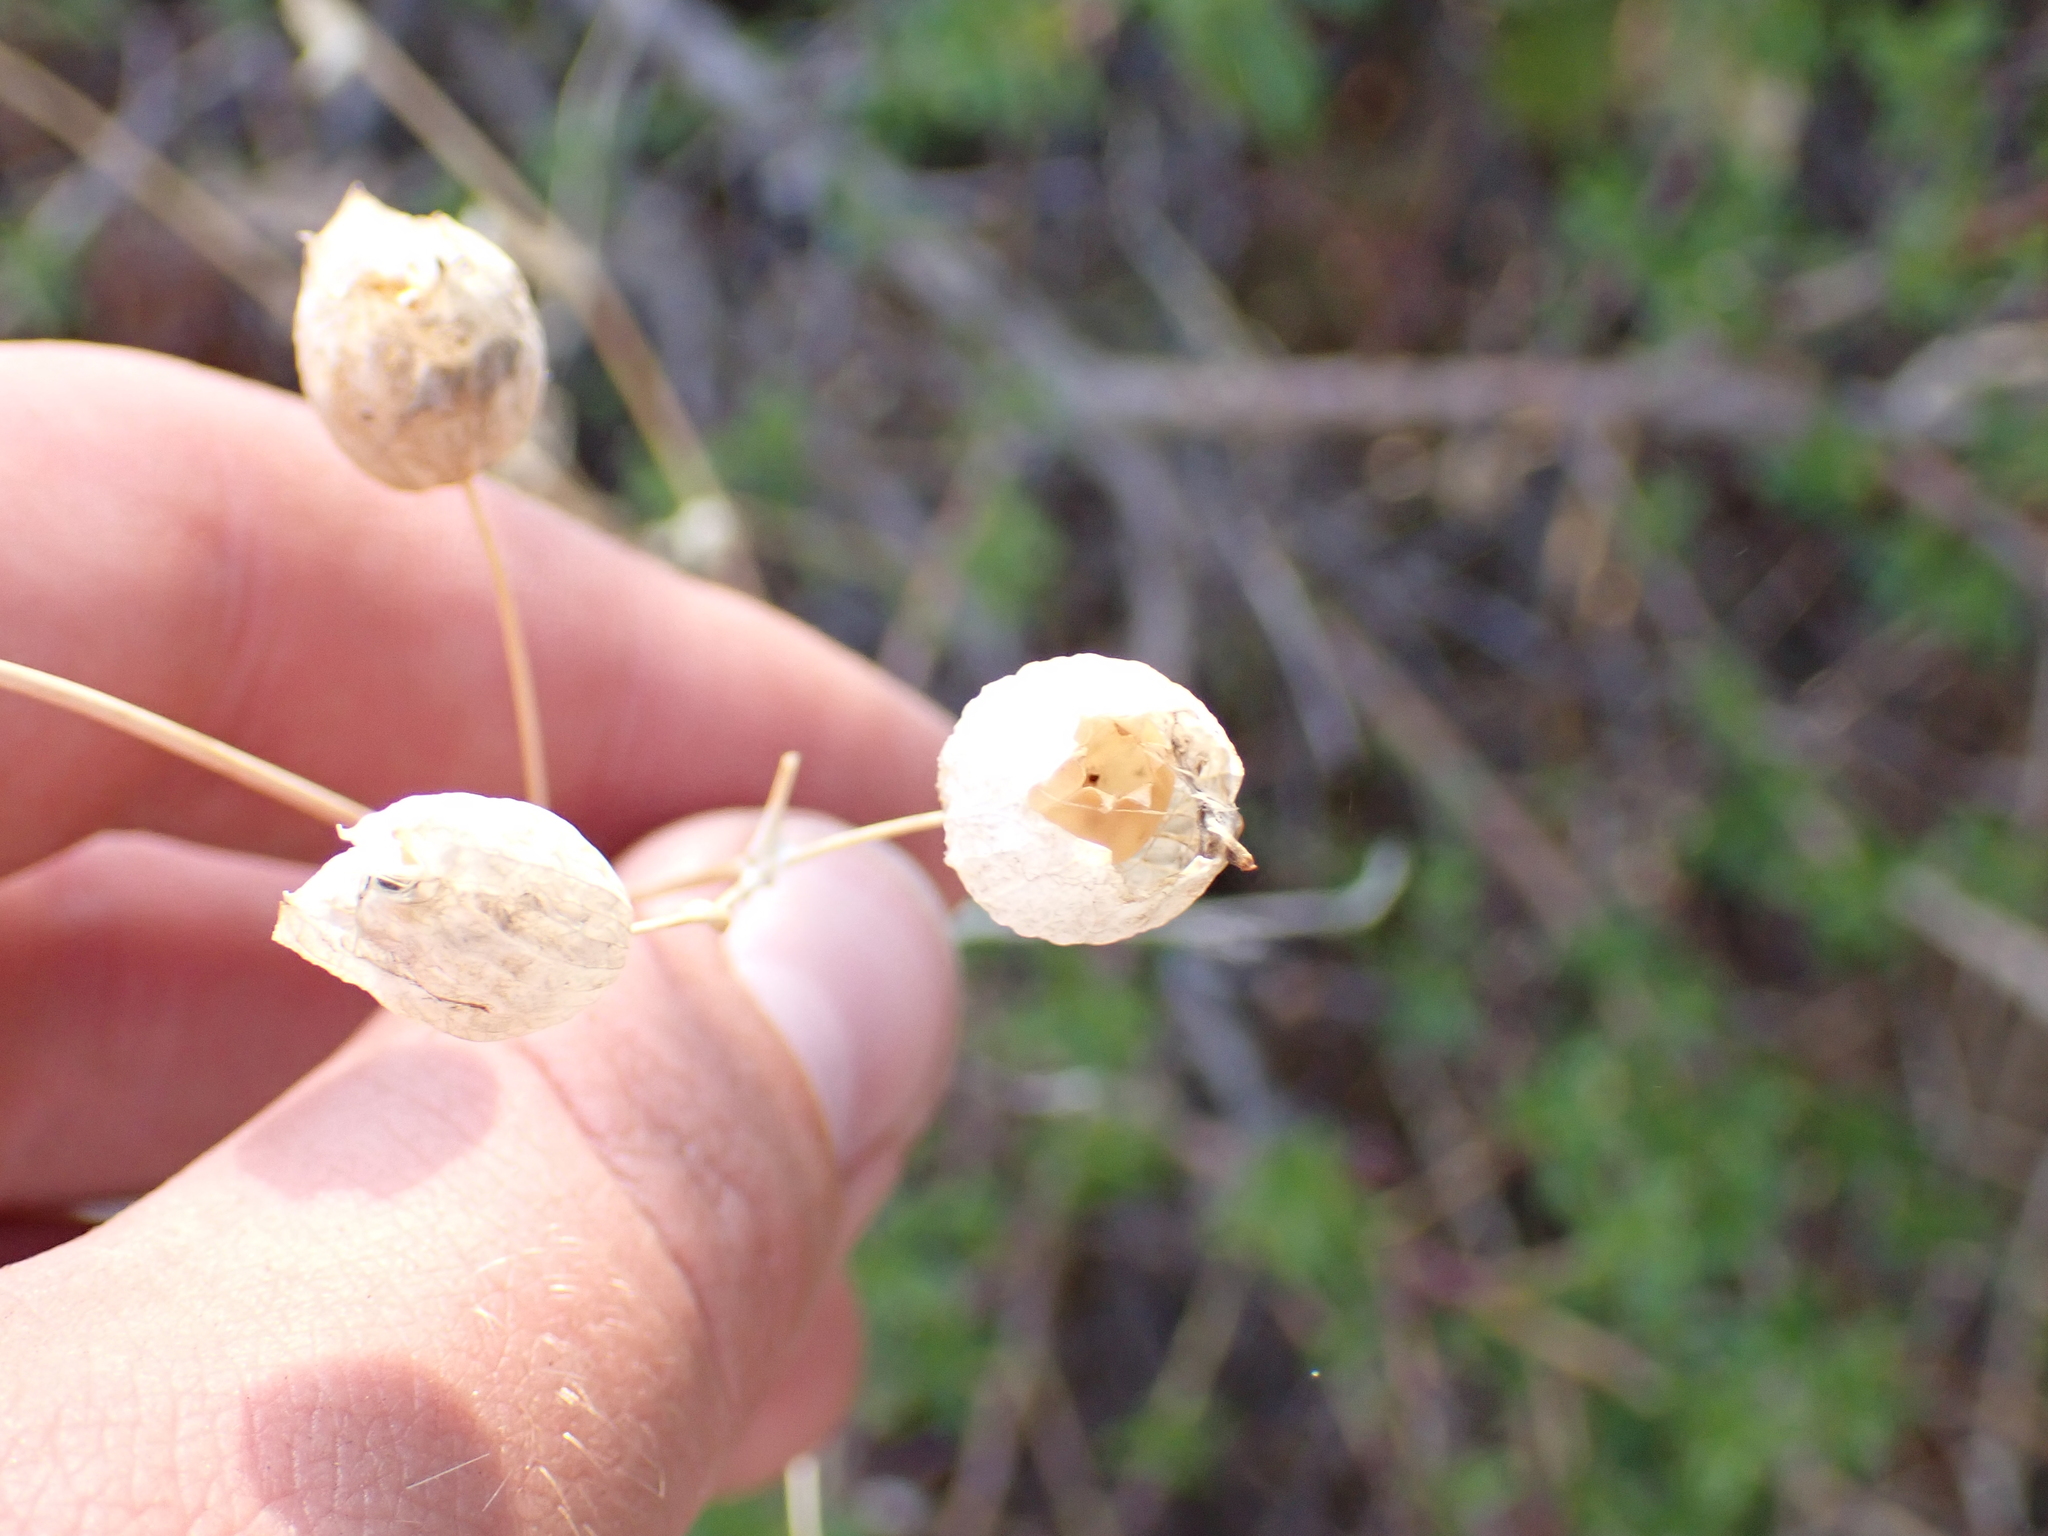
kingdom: Plantae
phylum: Tracheophyta
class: Magnoliopsida
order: Caryophyllales
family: Caryophyllaceae
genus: Silene
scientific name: Silene vulgaris
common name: Bladder campion
